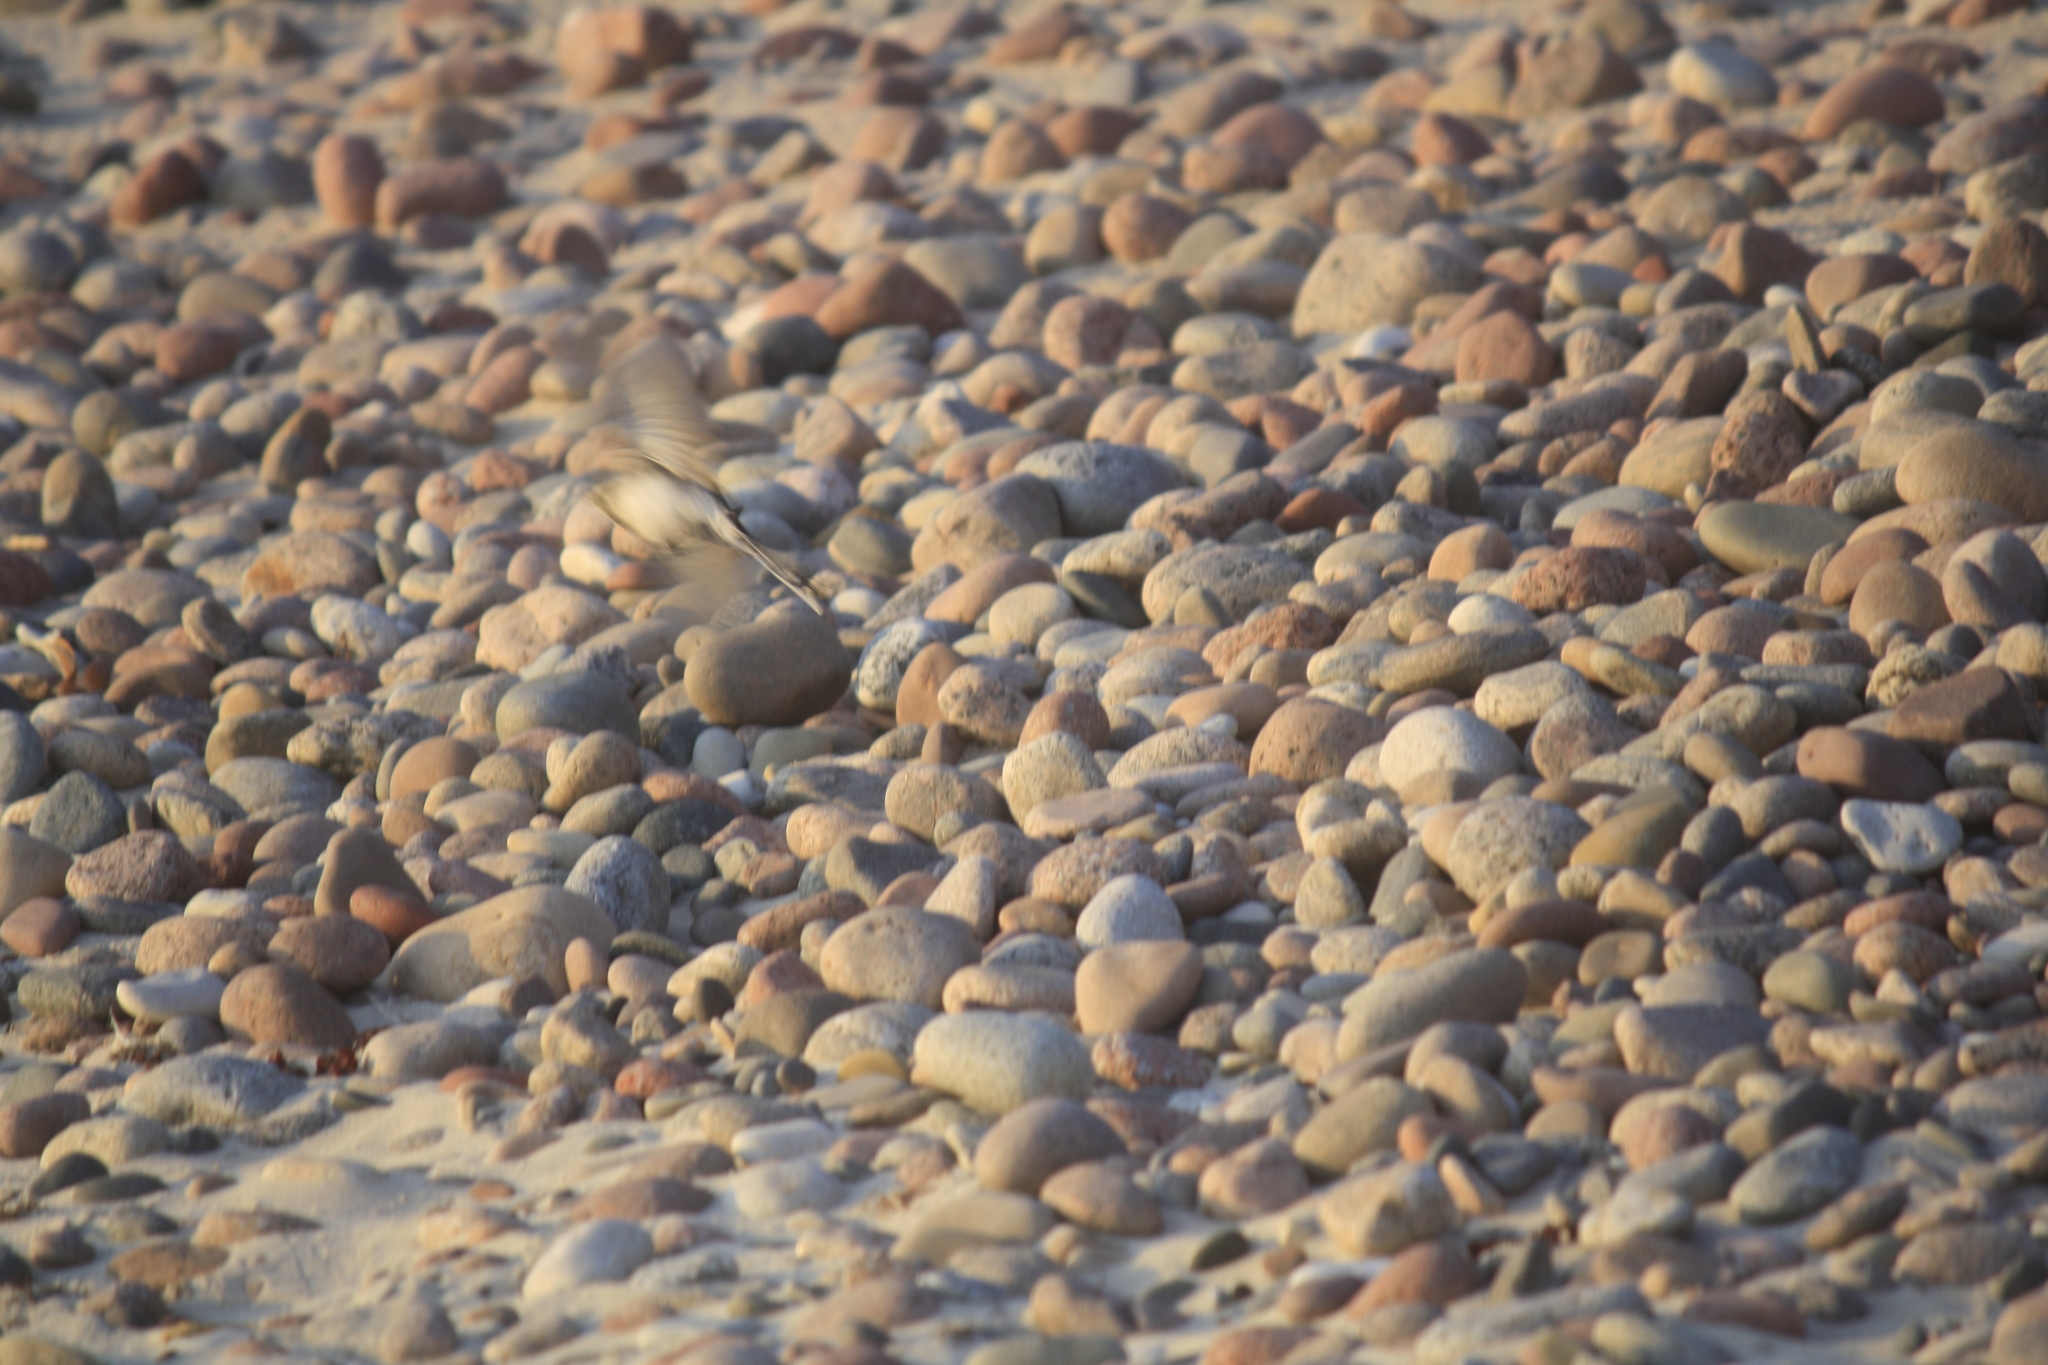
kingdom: Animalia
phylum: Chordata
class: Aves
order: Passeriformes
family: Motacillidae
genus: Motacilla
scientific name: Motacilla alba
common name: White wagtail
